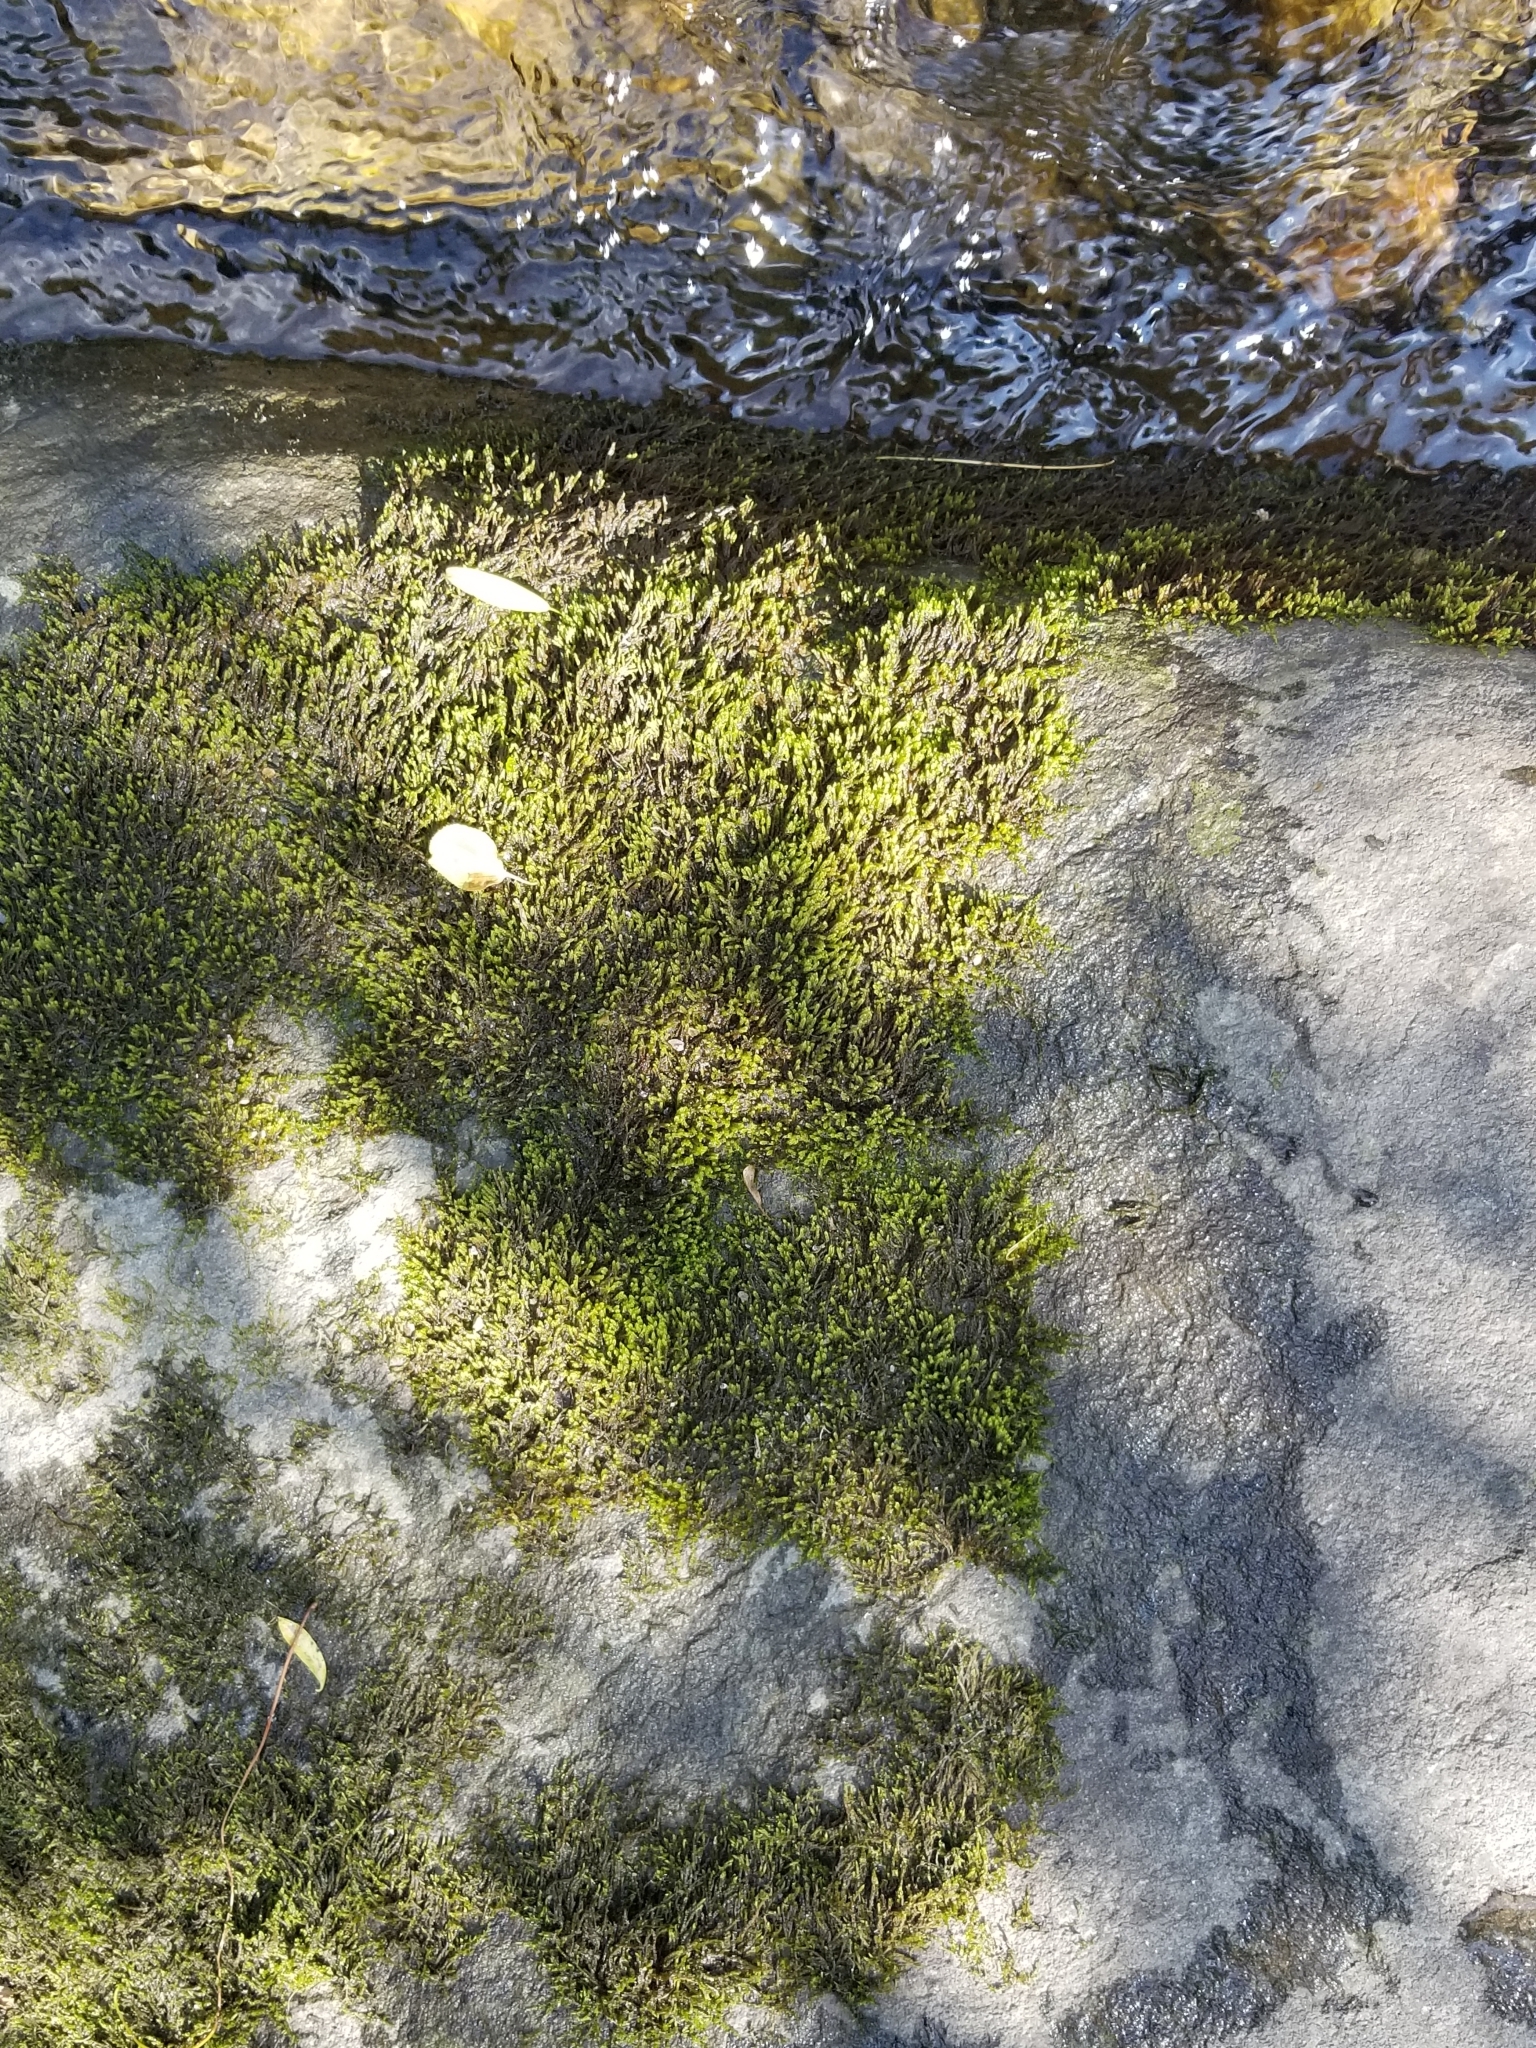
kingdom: Plantae
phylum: Bryophyta
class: Bryopsida
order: Hypnales
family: Entodontaceae
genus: Entodon
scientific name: Entodon seductrix
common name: Round-stemmed entodon moss
